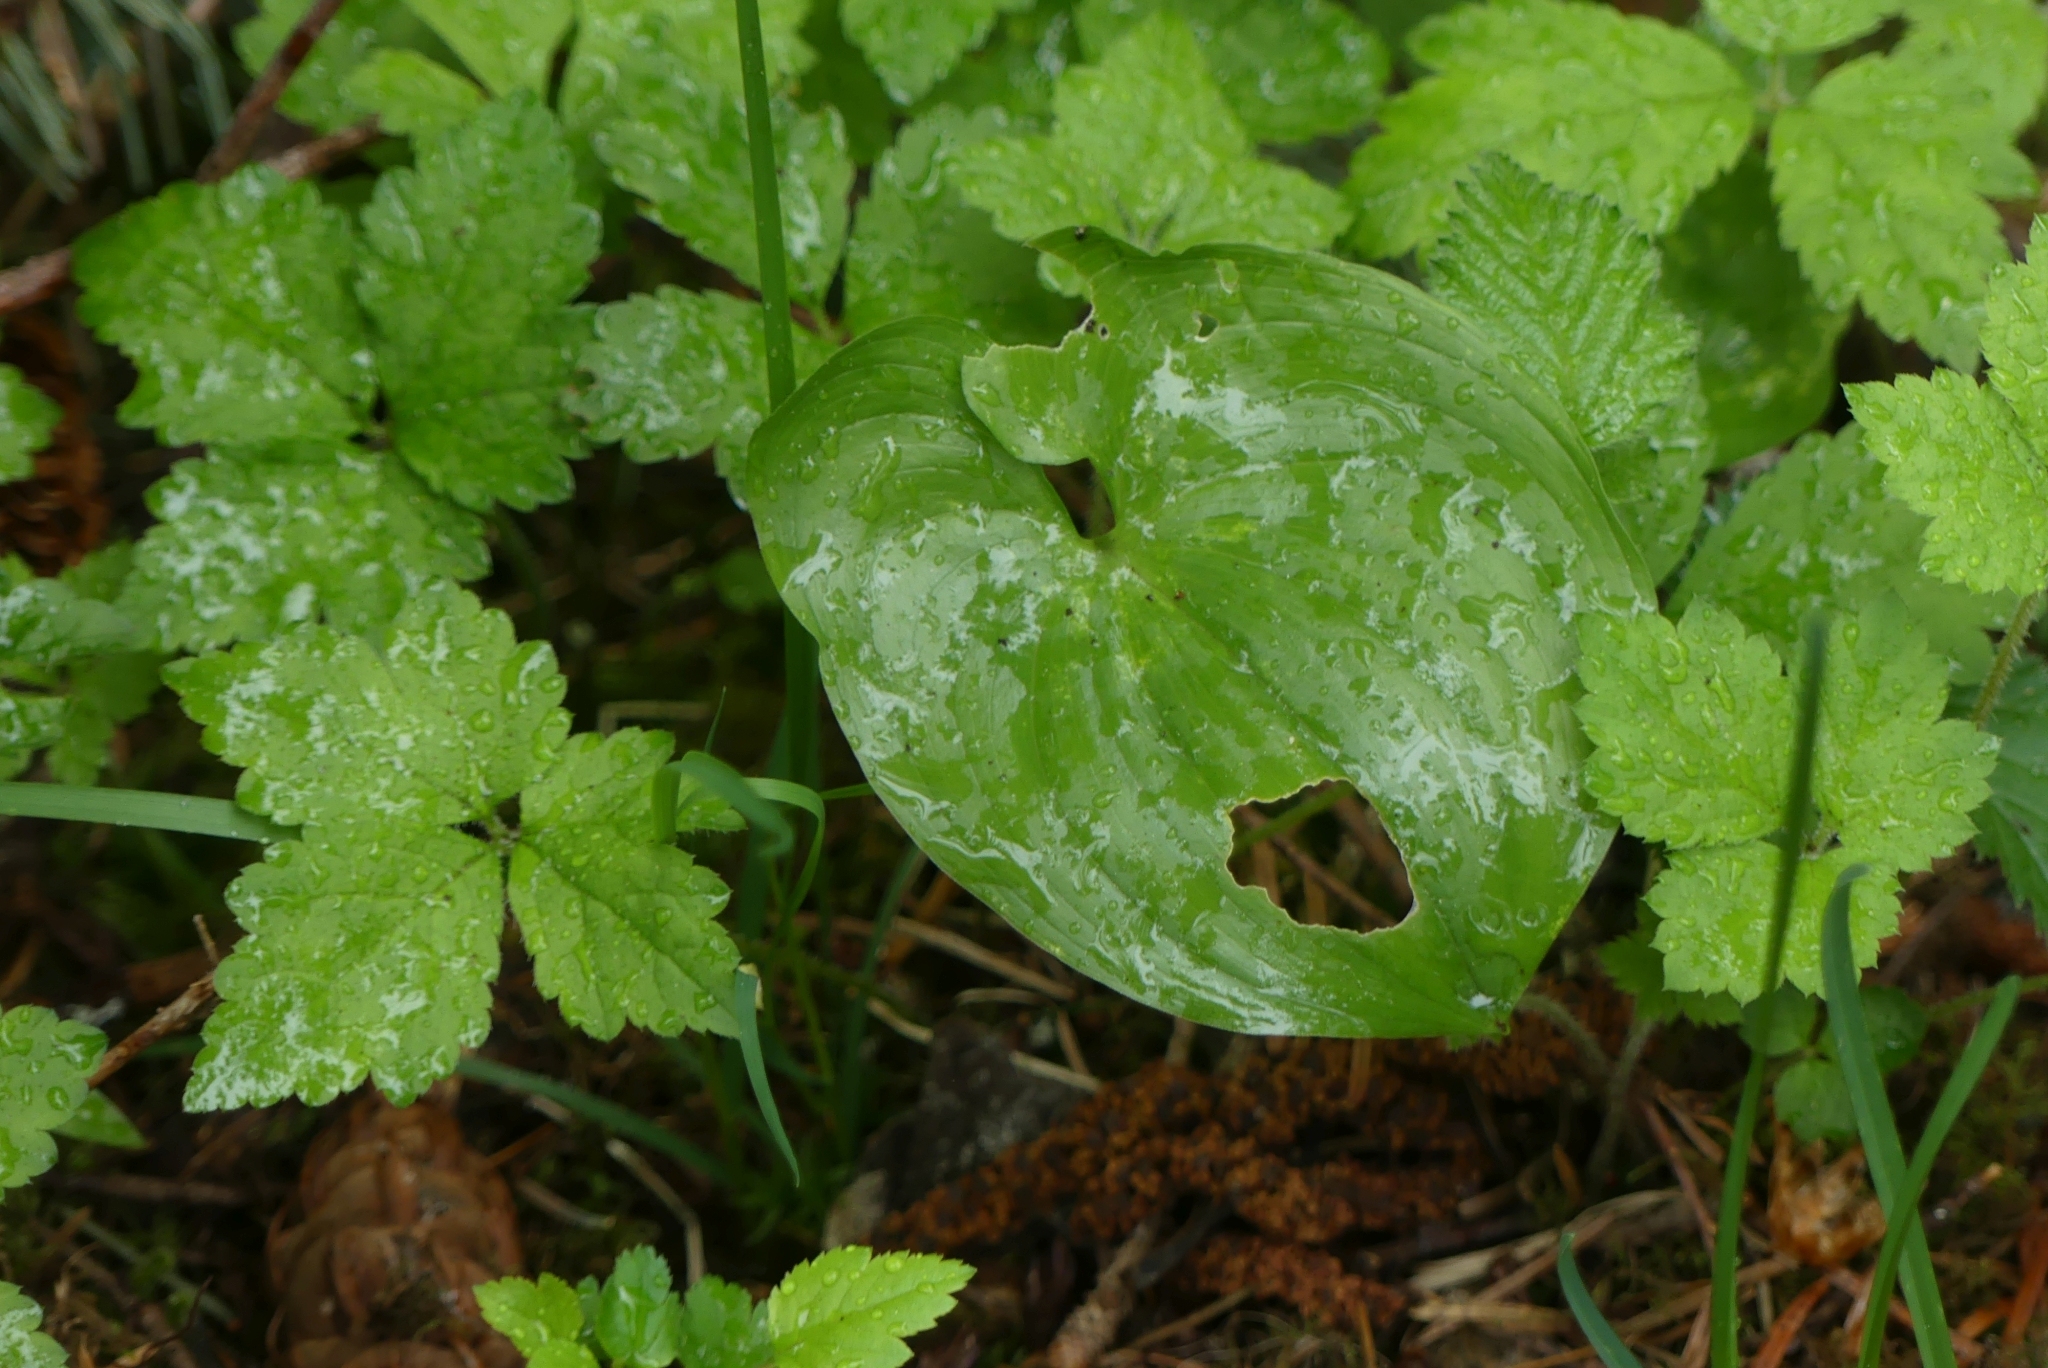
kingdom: Plantae
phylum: Tracheophyta
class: Liliopsida
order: Asparagales
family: Asparagaceae
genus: Maianthemum
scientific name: Maianthemum dilatatum
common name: False lily-of-the-valley
